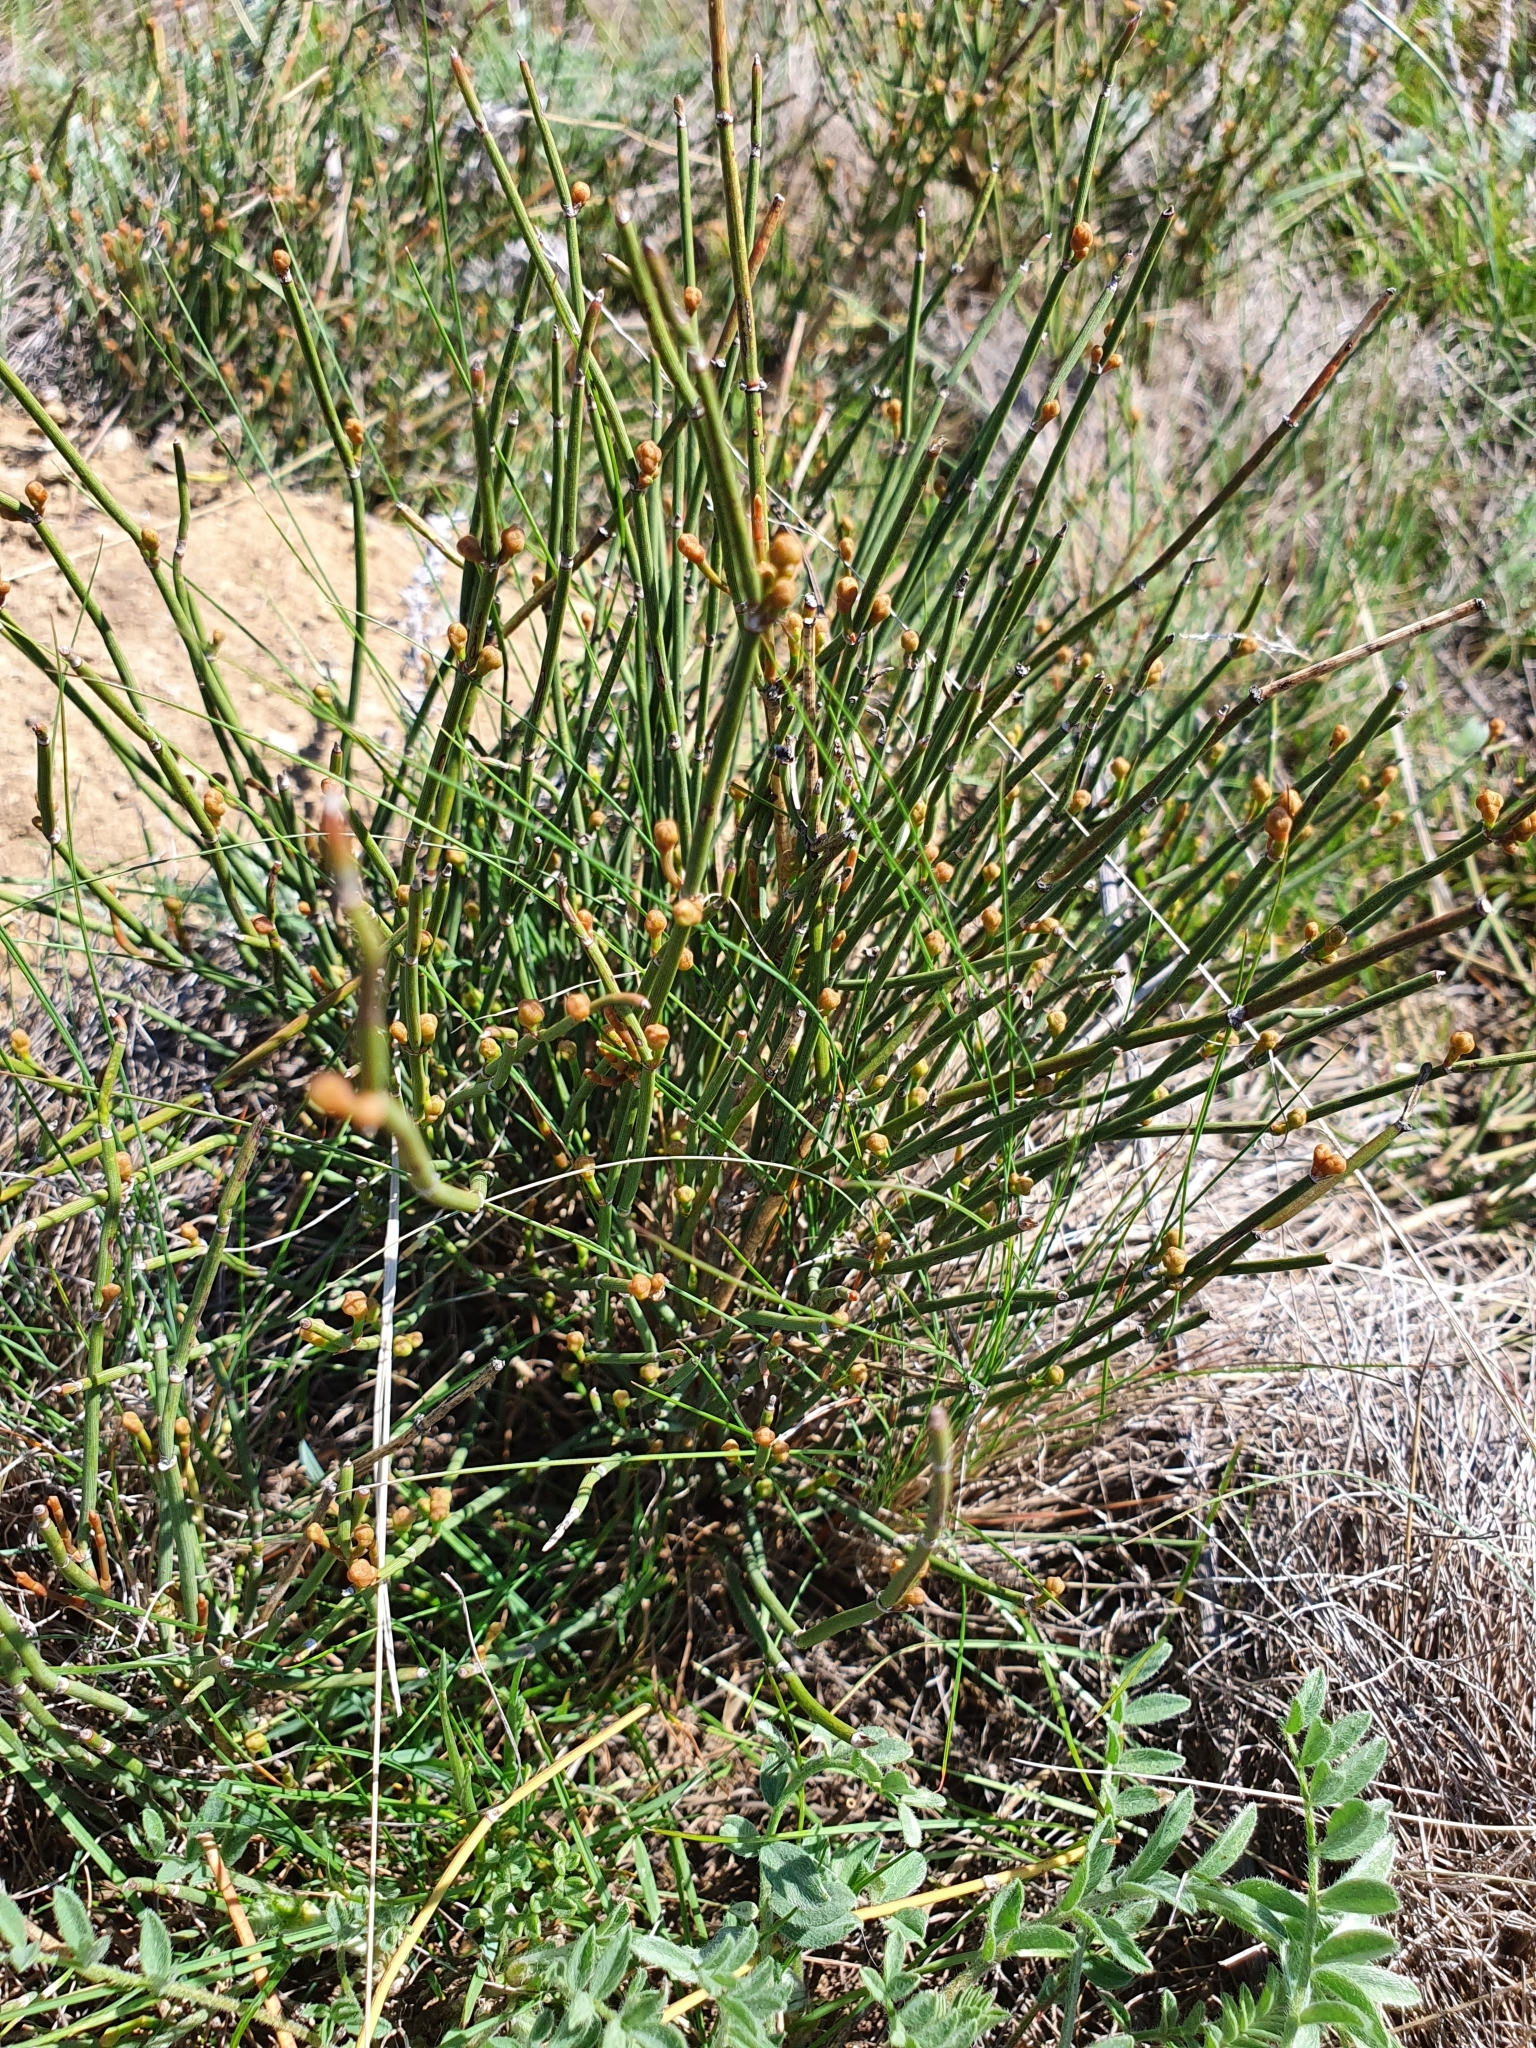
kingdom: Plantae
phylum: Tracheophyta
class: Gnetopsida
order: Ephedrales
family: Ephedraceae
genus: Ephedra
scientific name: Ephedra distachya
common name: Sea grape
